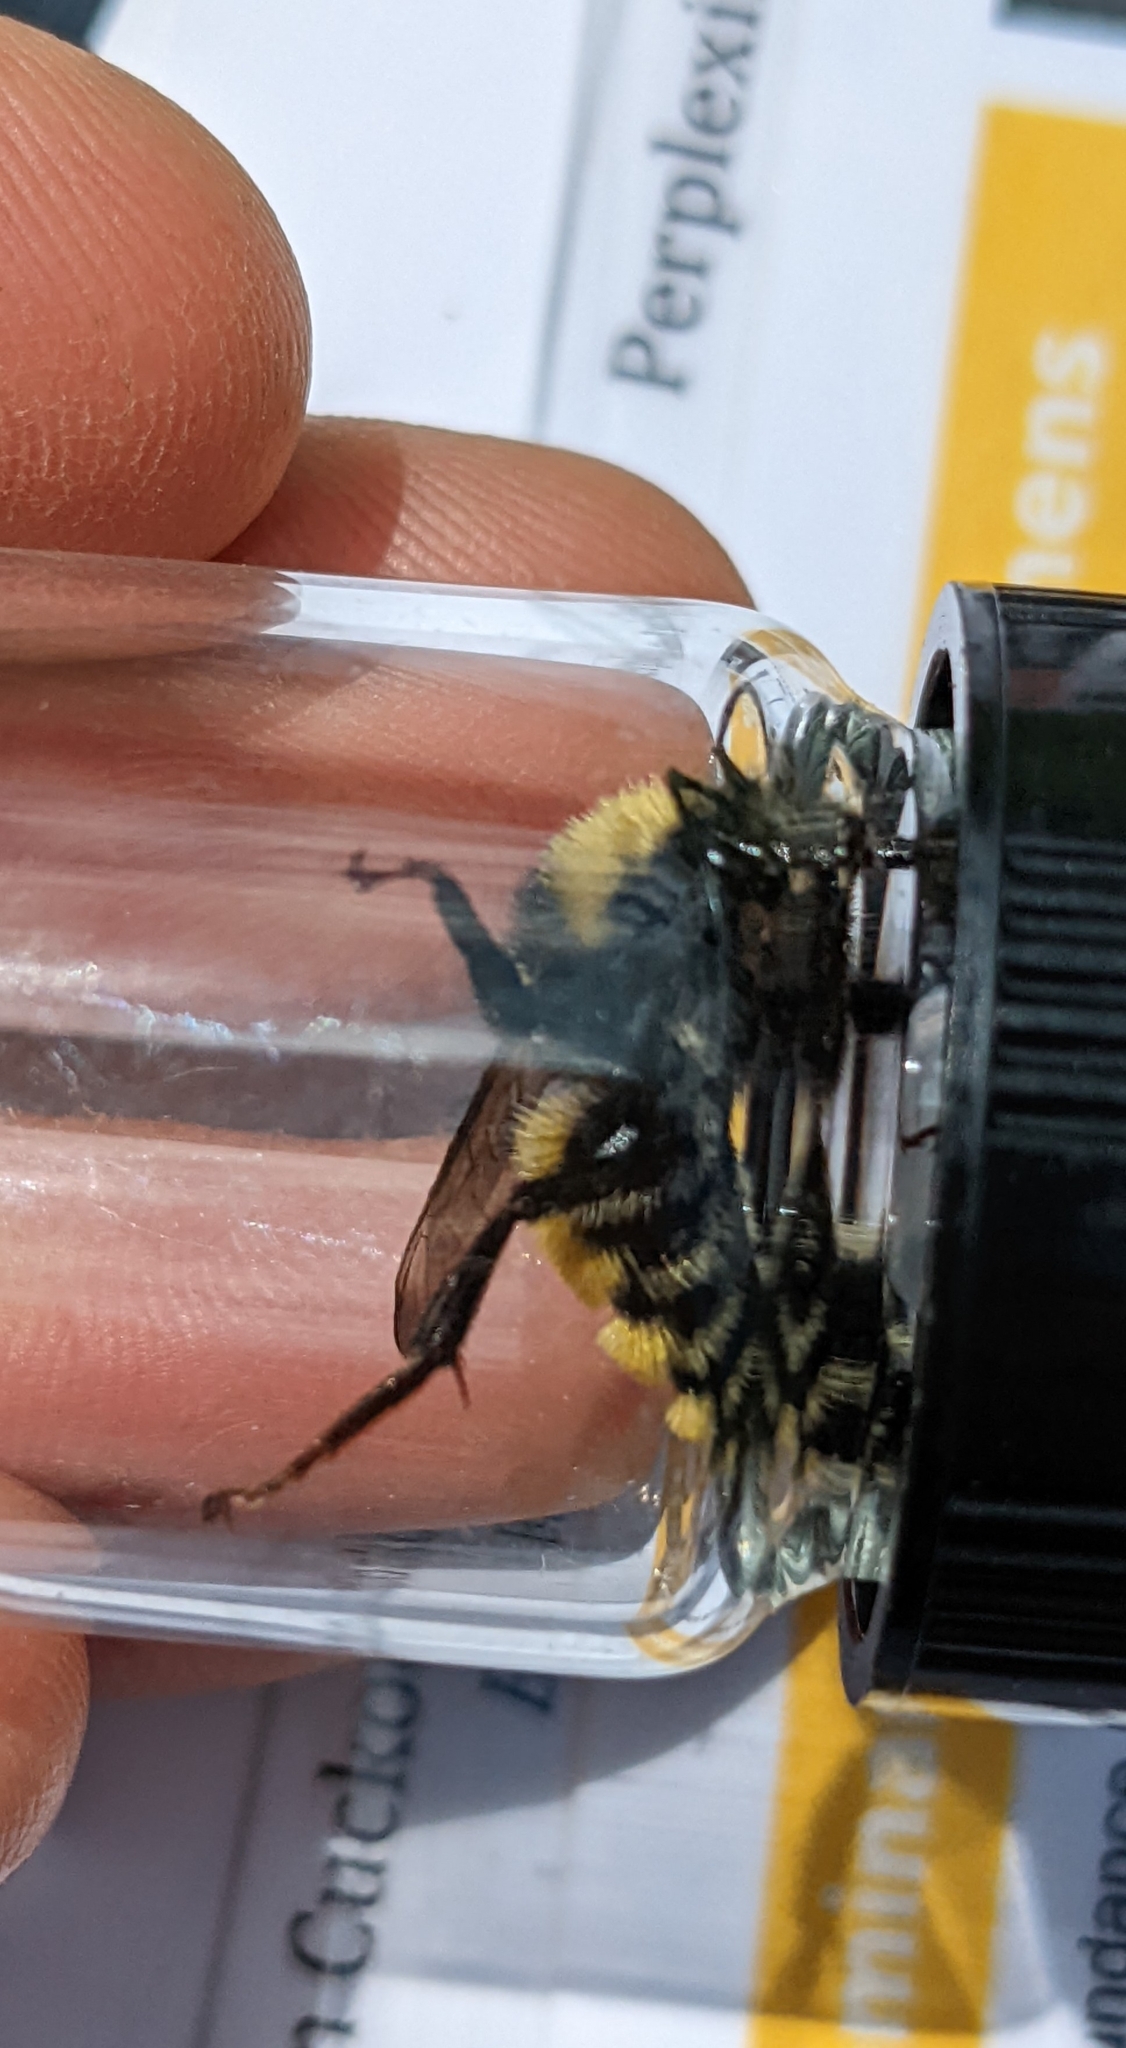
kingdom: Animalia
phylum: Arthropoda
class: Insecta
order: Hymenoptera
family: Apidae
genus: Bombus
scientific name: Bombus borealis
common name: Northern amber bumble bee
